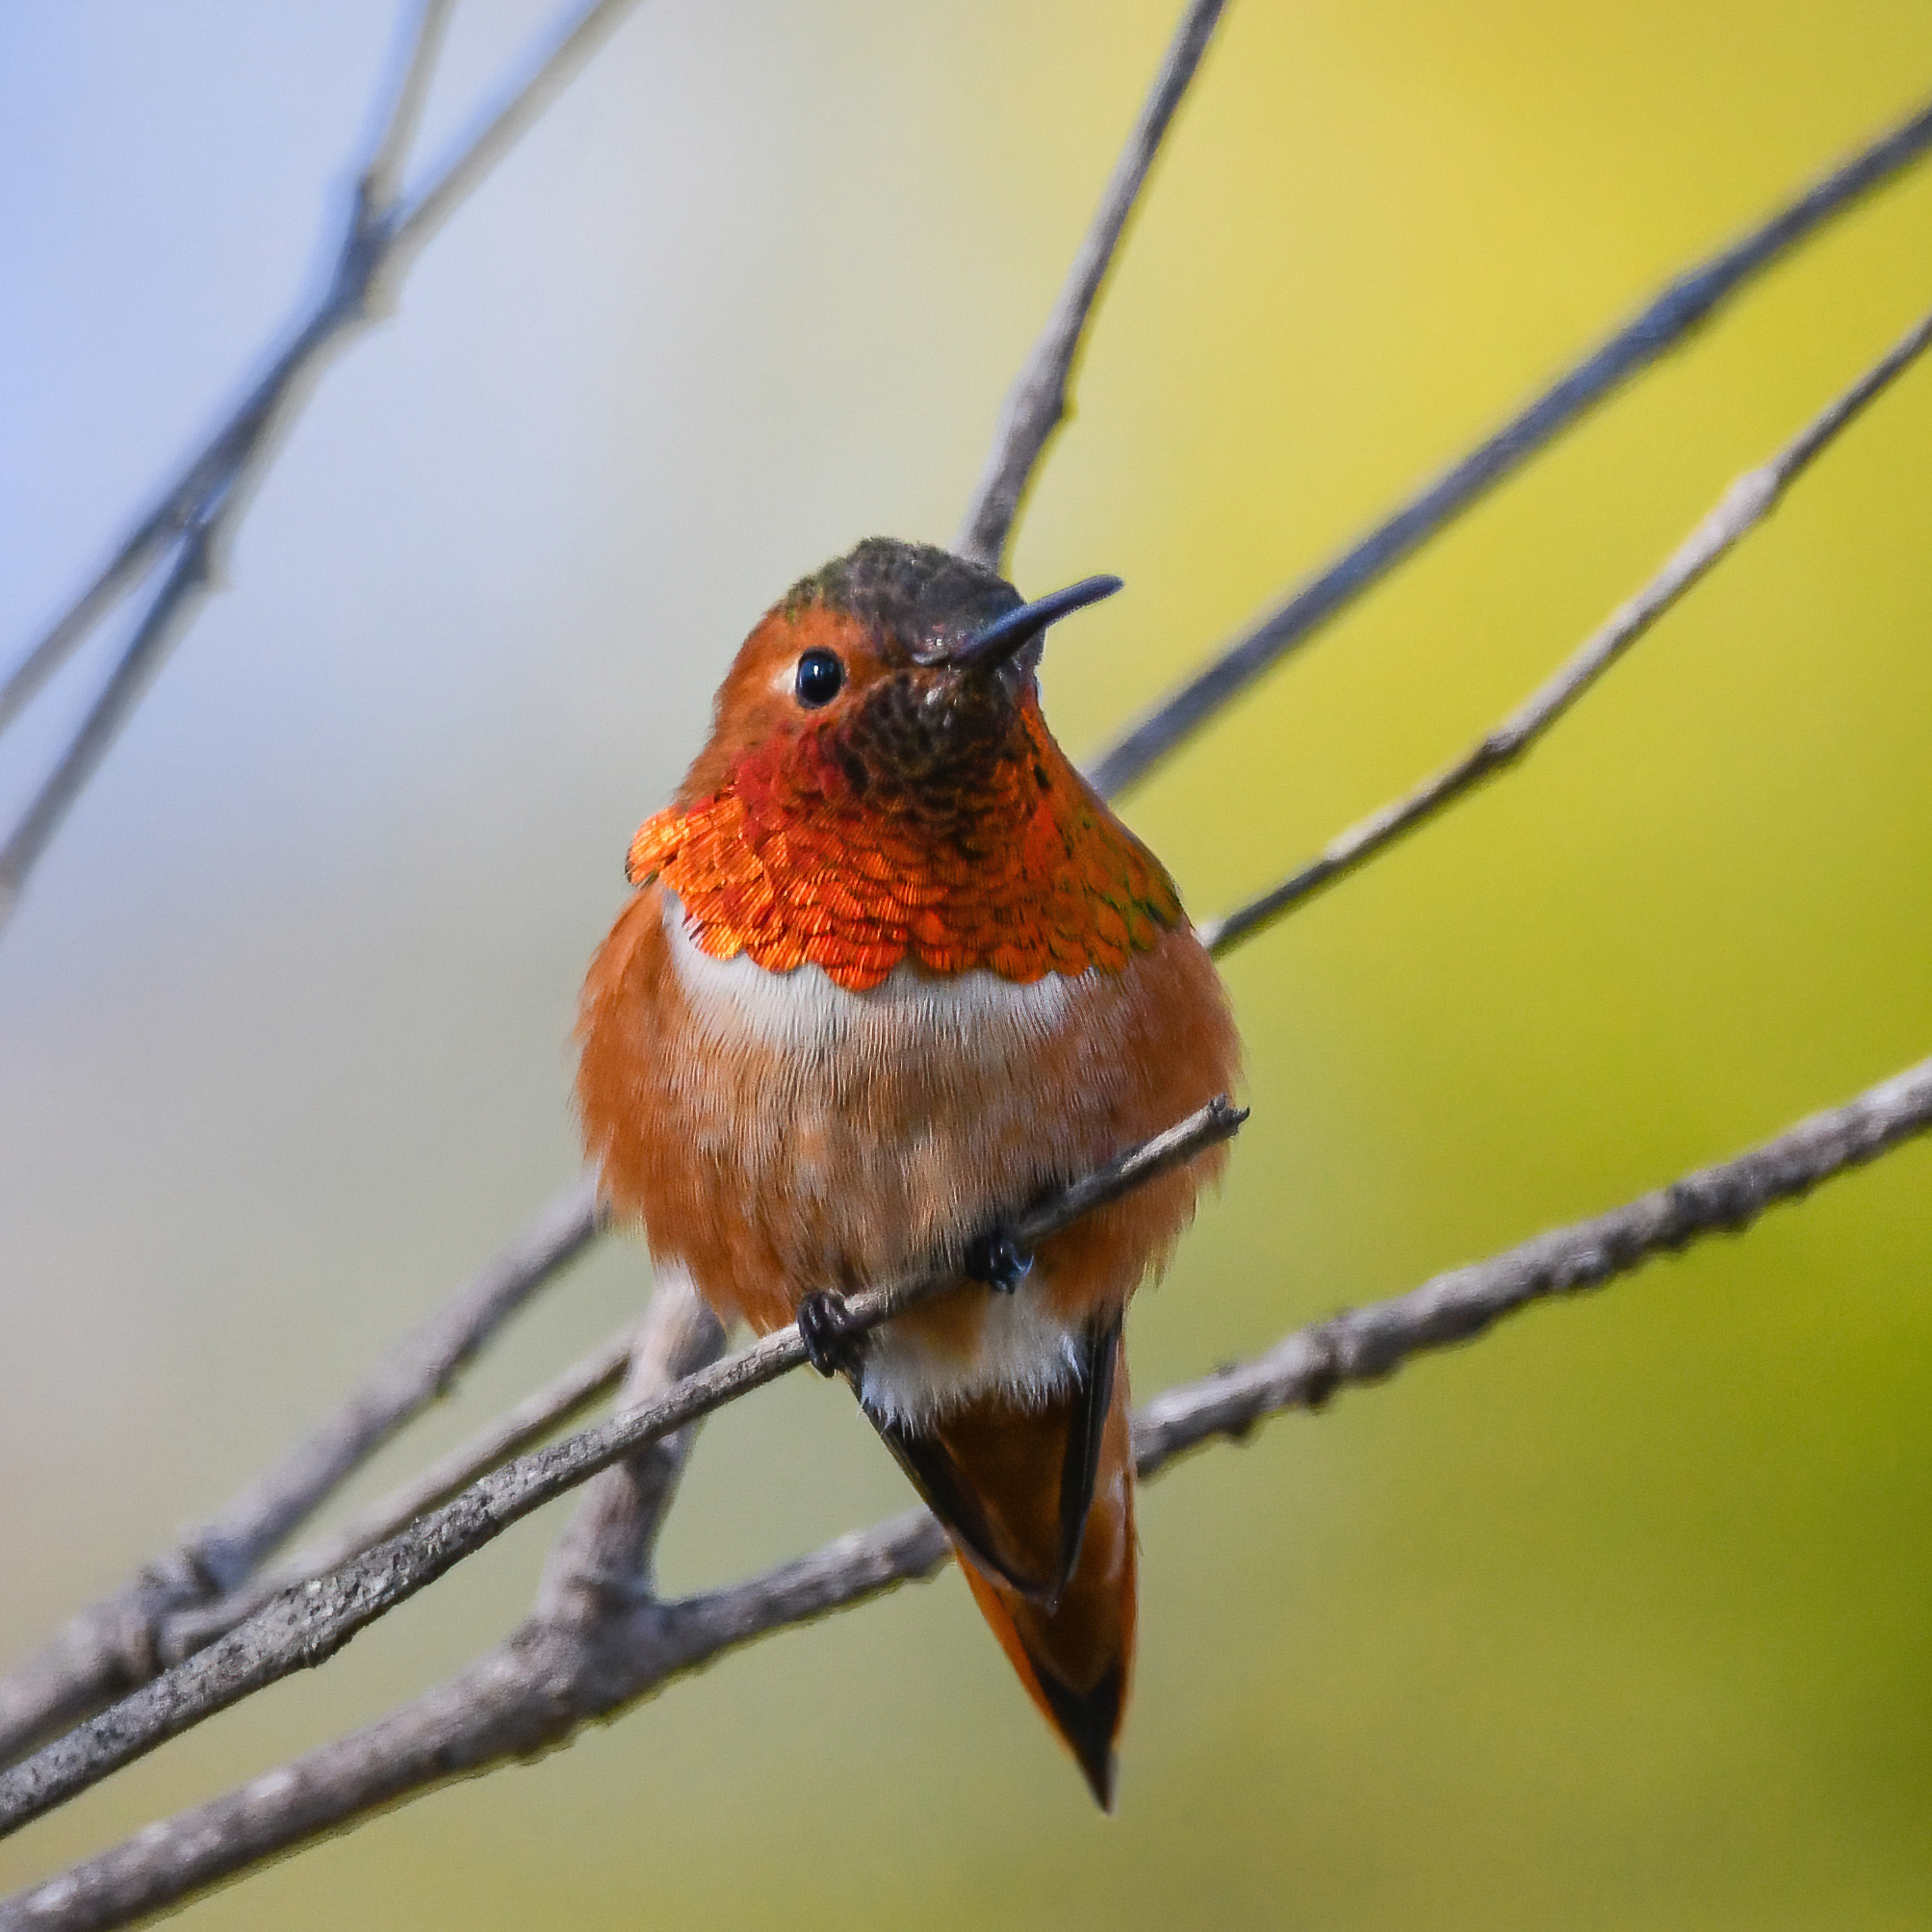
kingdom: Animalia
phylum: Chordata
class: Aves
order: Apodiformes
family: Trochilidae
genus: Selasphorus
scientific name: Selasphorus sasin
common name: Allen's hummingbird
